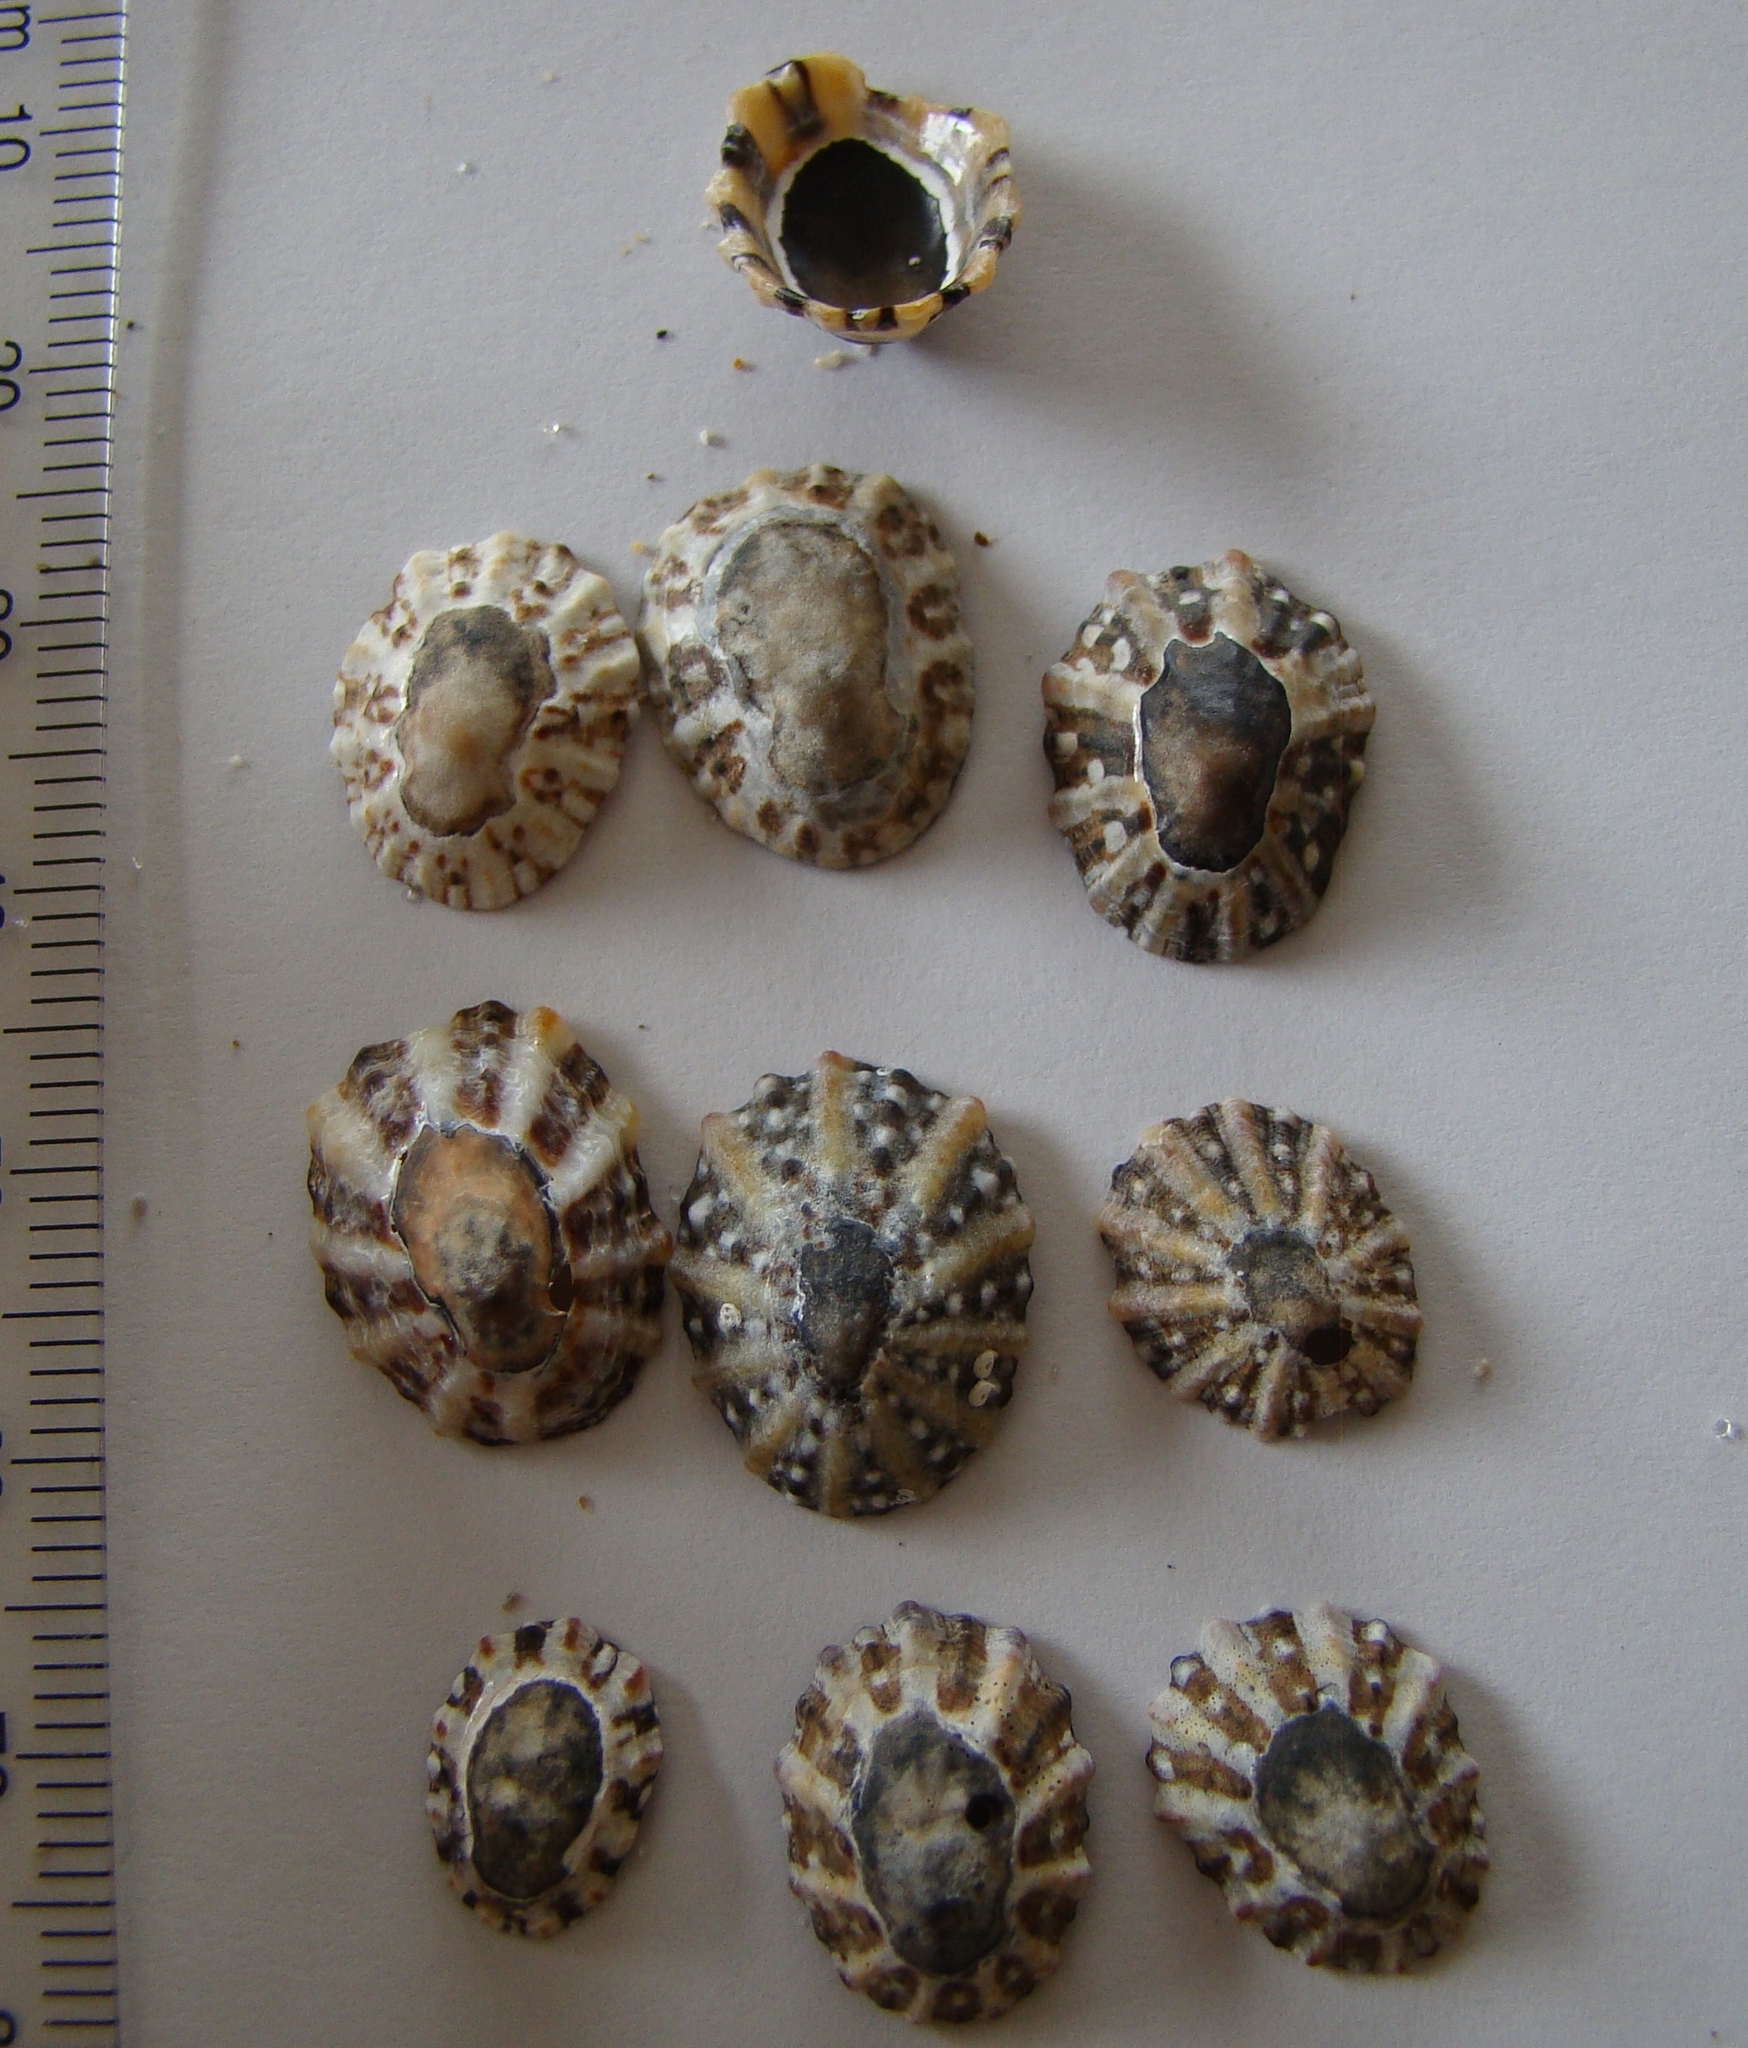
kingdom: Animalia
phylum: Mollusca
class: Gastropoda
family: Nacellidae
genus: Cellana
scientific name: Cellana ornata
